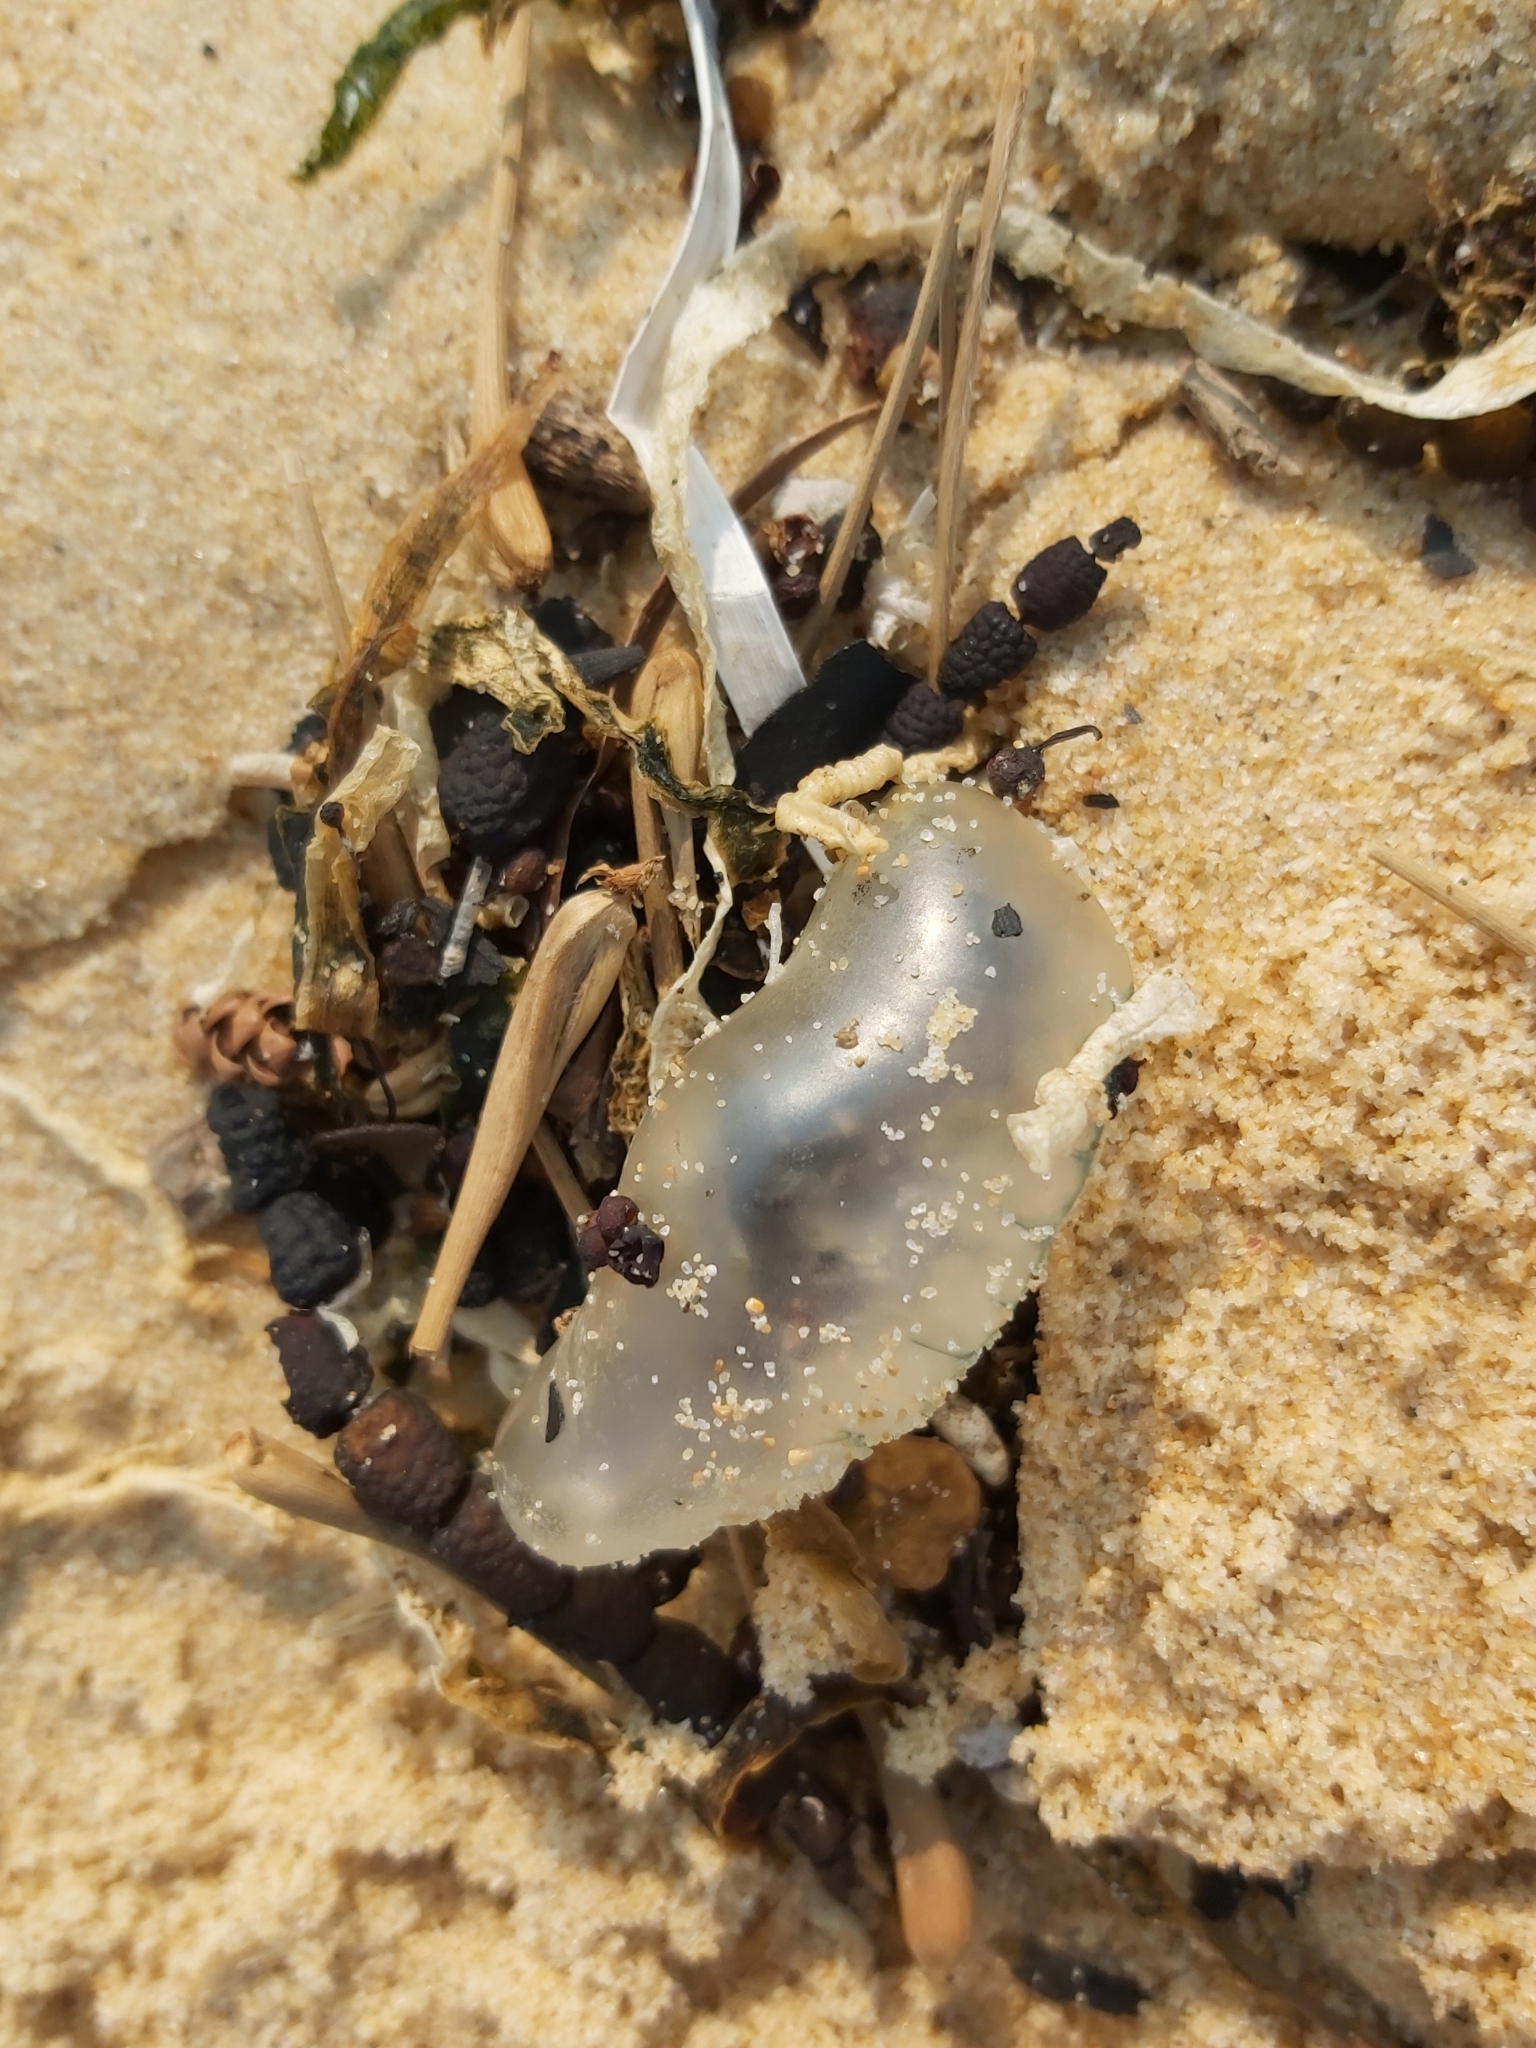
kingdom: Animalia
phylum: Cnidaria
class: Hydrozoa
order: Siphonophorae
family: Physaliidae
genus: Physalia
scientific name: Physalia physalis
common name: Portuguese man-of-war
